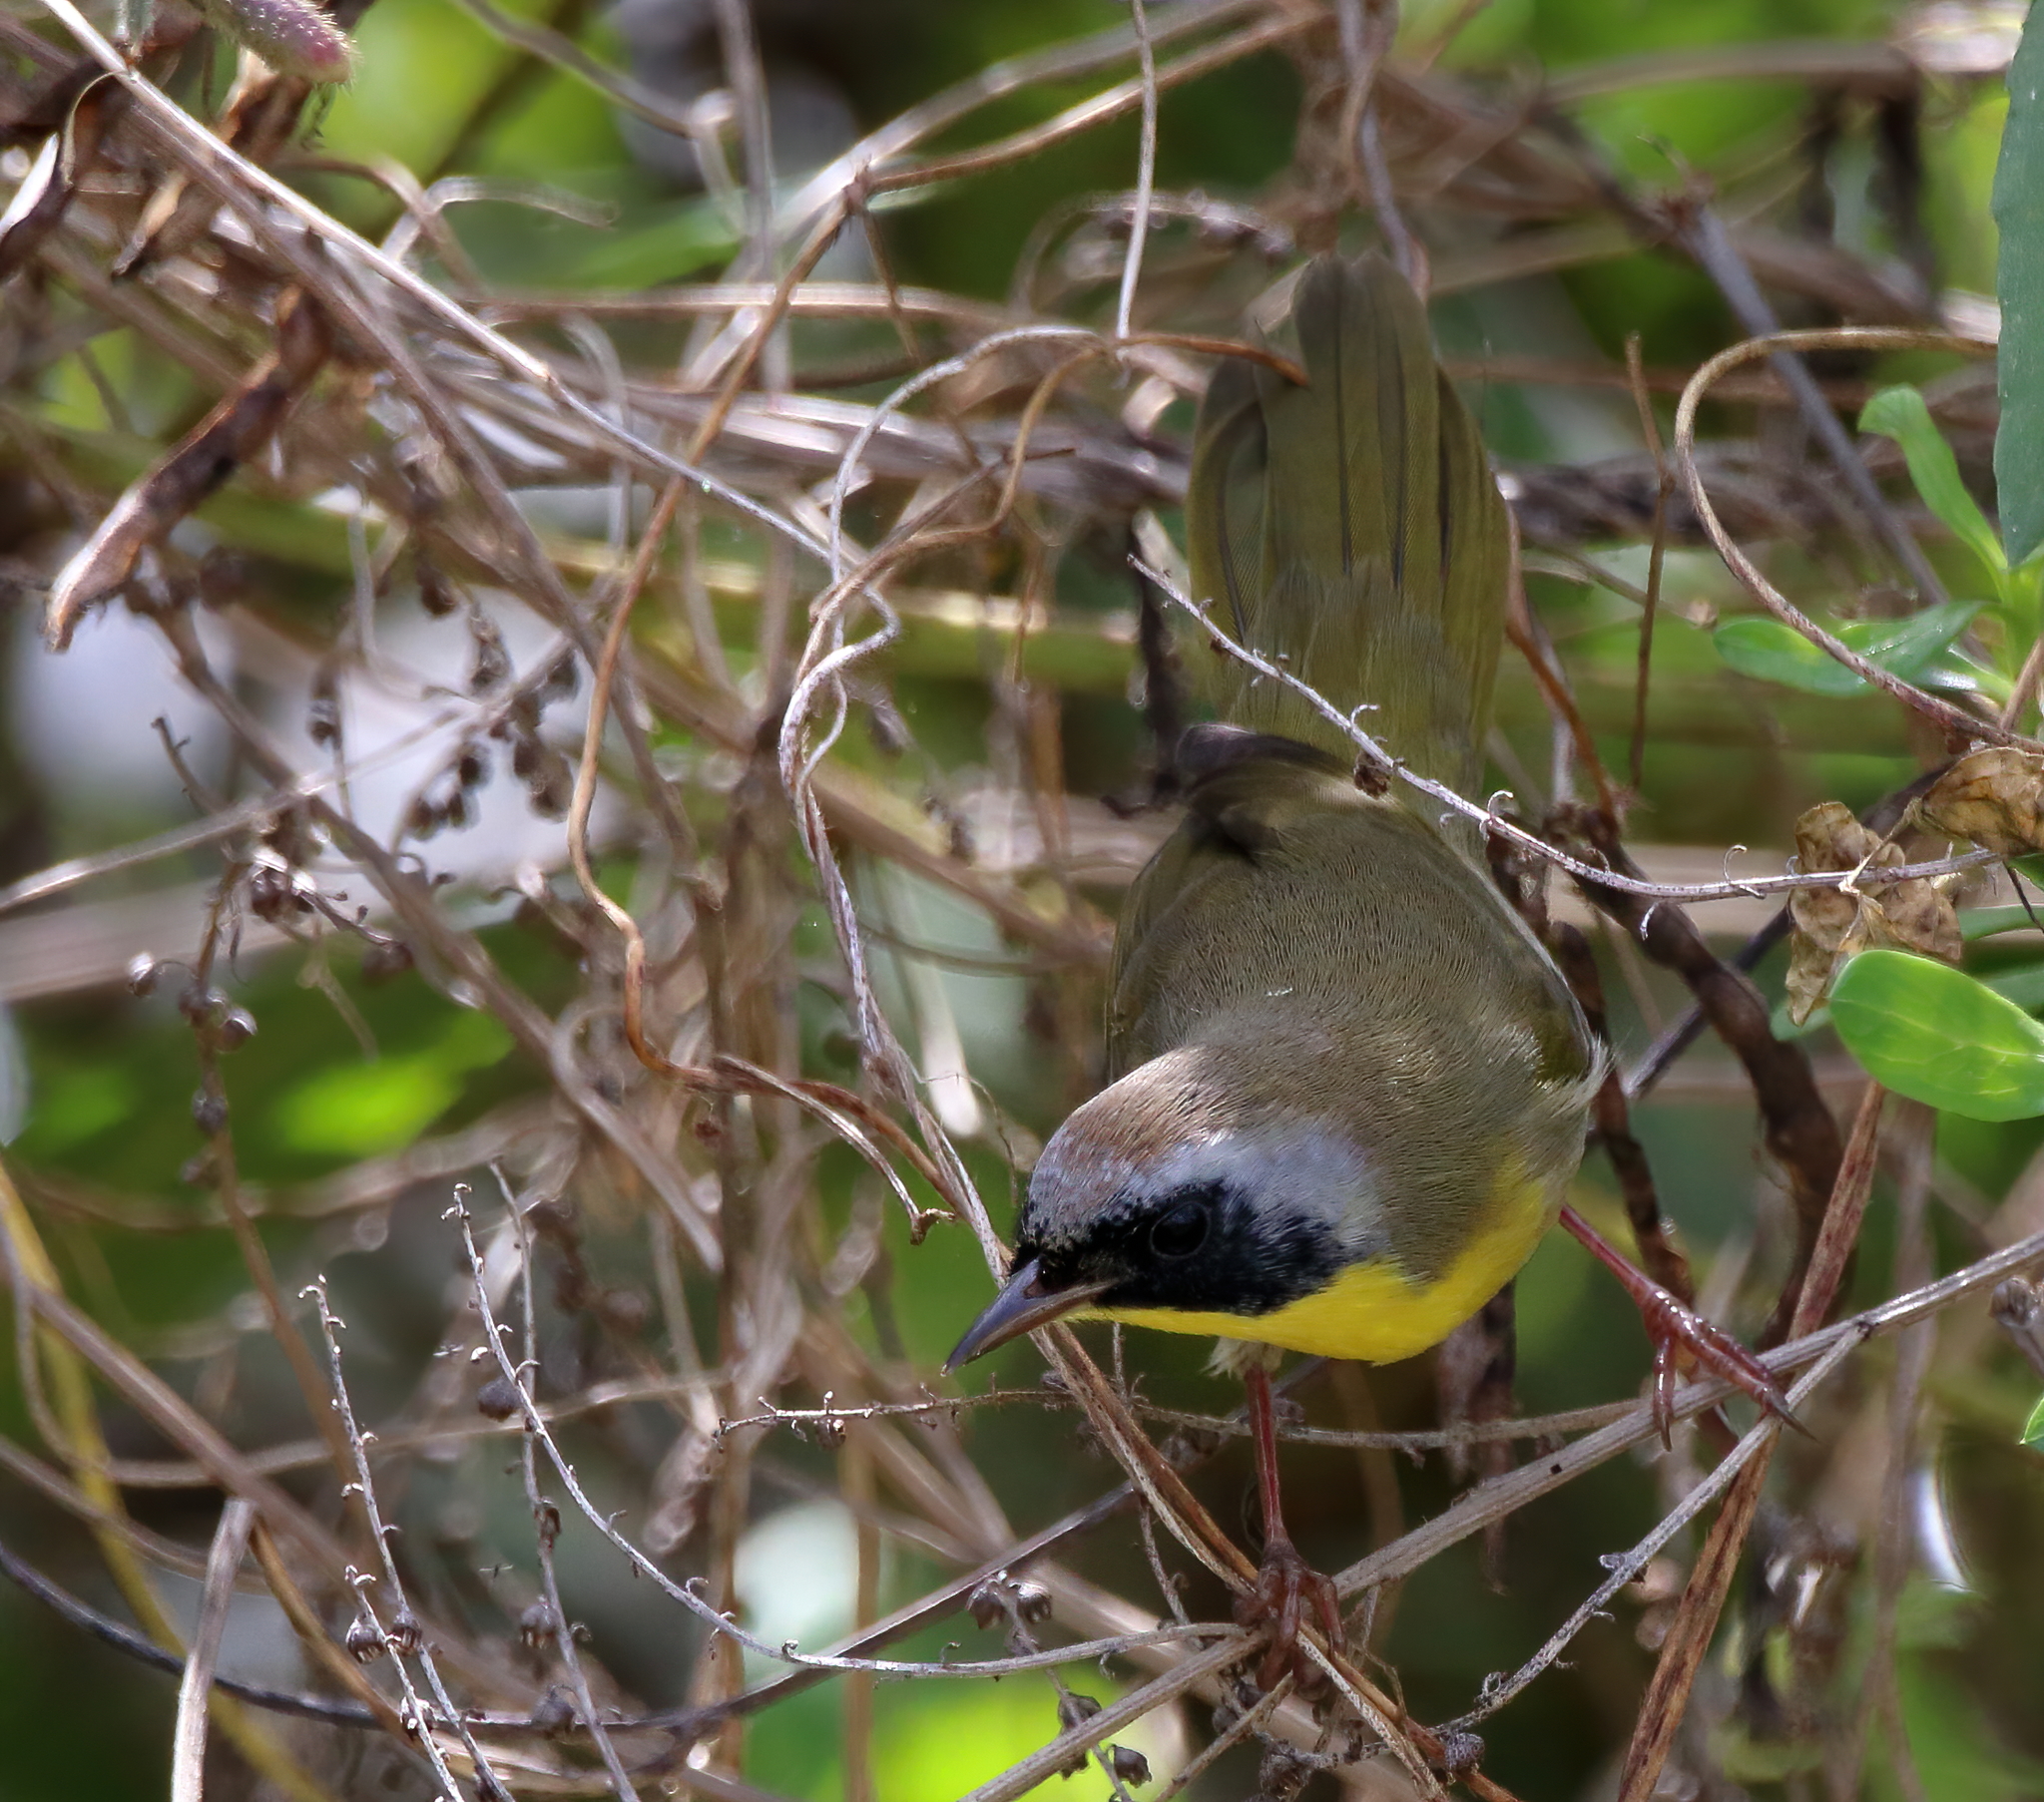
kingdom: Animalia
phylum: Chordata
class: Aves
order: Passeriformes
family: Parulidae
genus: Geothlypis
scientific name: Geothlypis trichas
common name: Common yellowthroat
